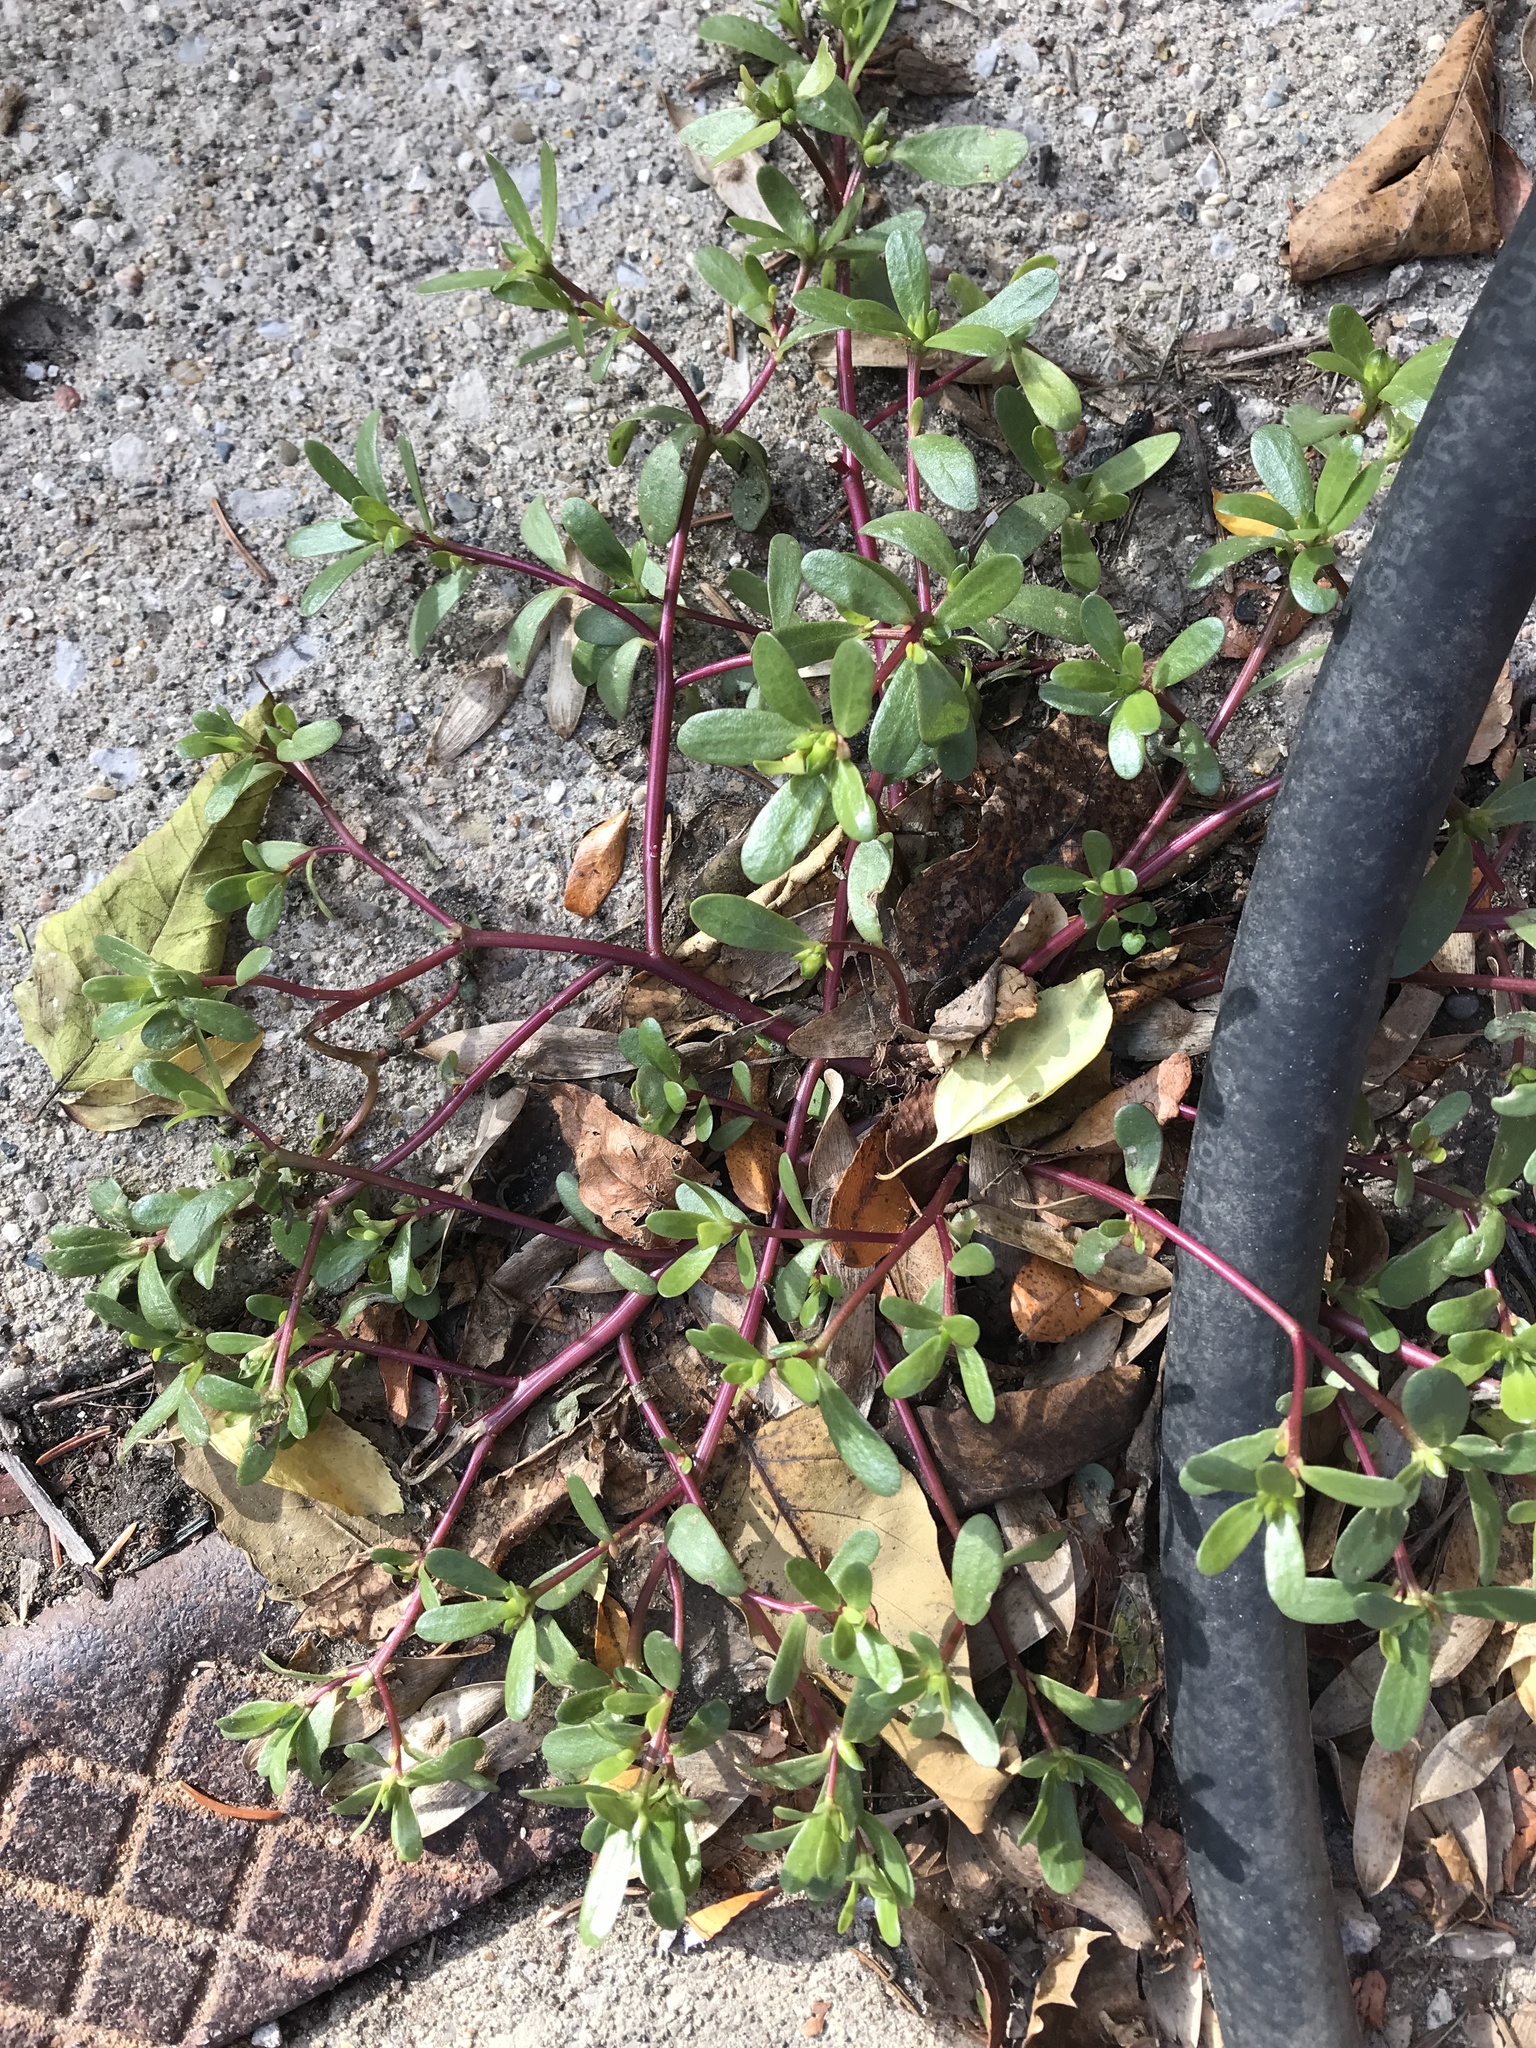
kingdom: Plantae
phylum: Tracheophyta
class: Magnoliopsida
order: Caryophyllales
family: Portulacaceae
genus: Portulaca
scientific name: Portulaca oleracea
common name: Common purslane
